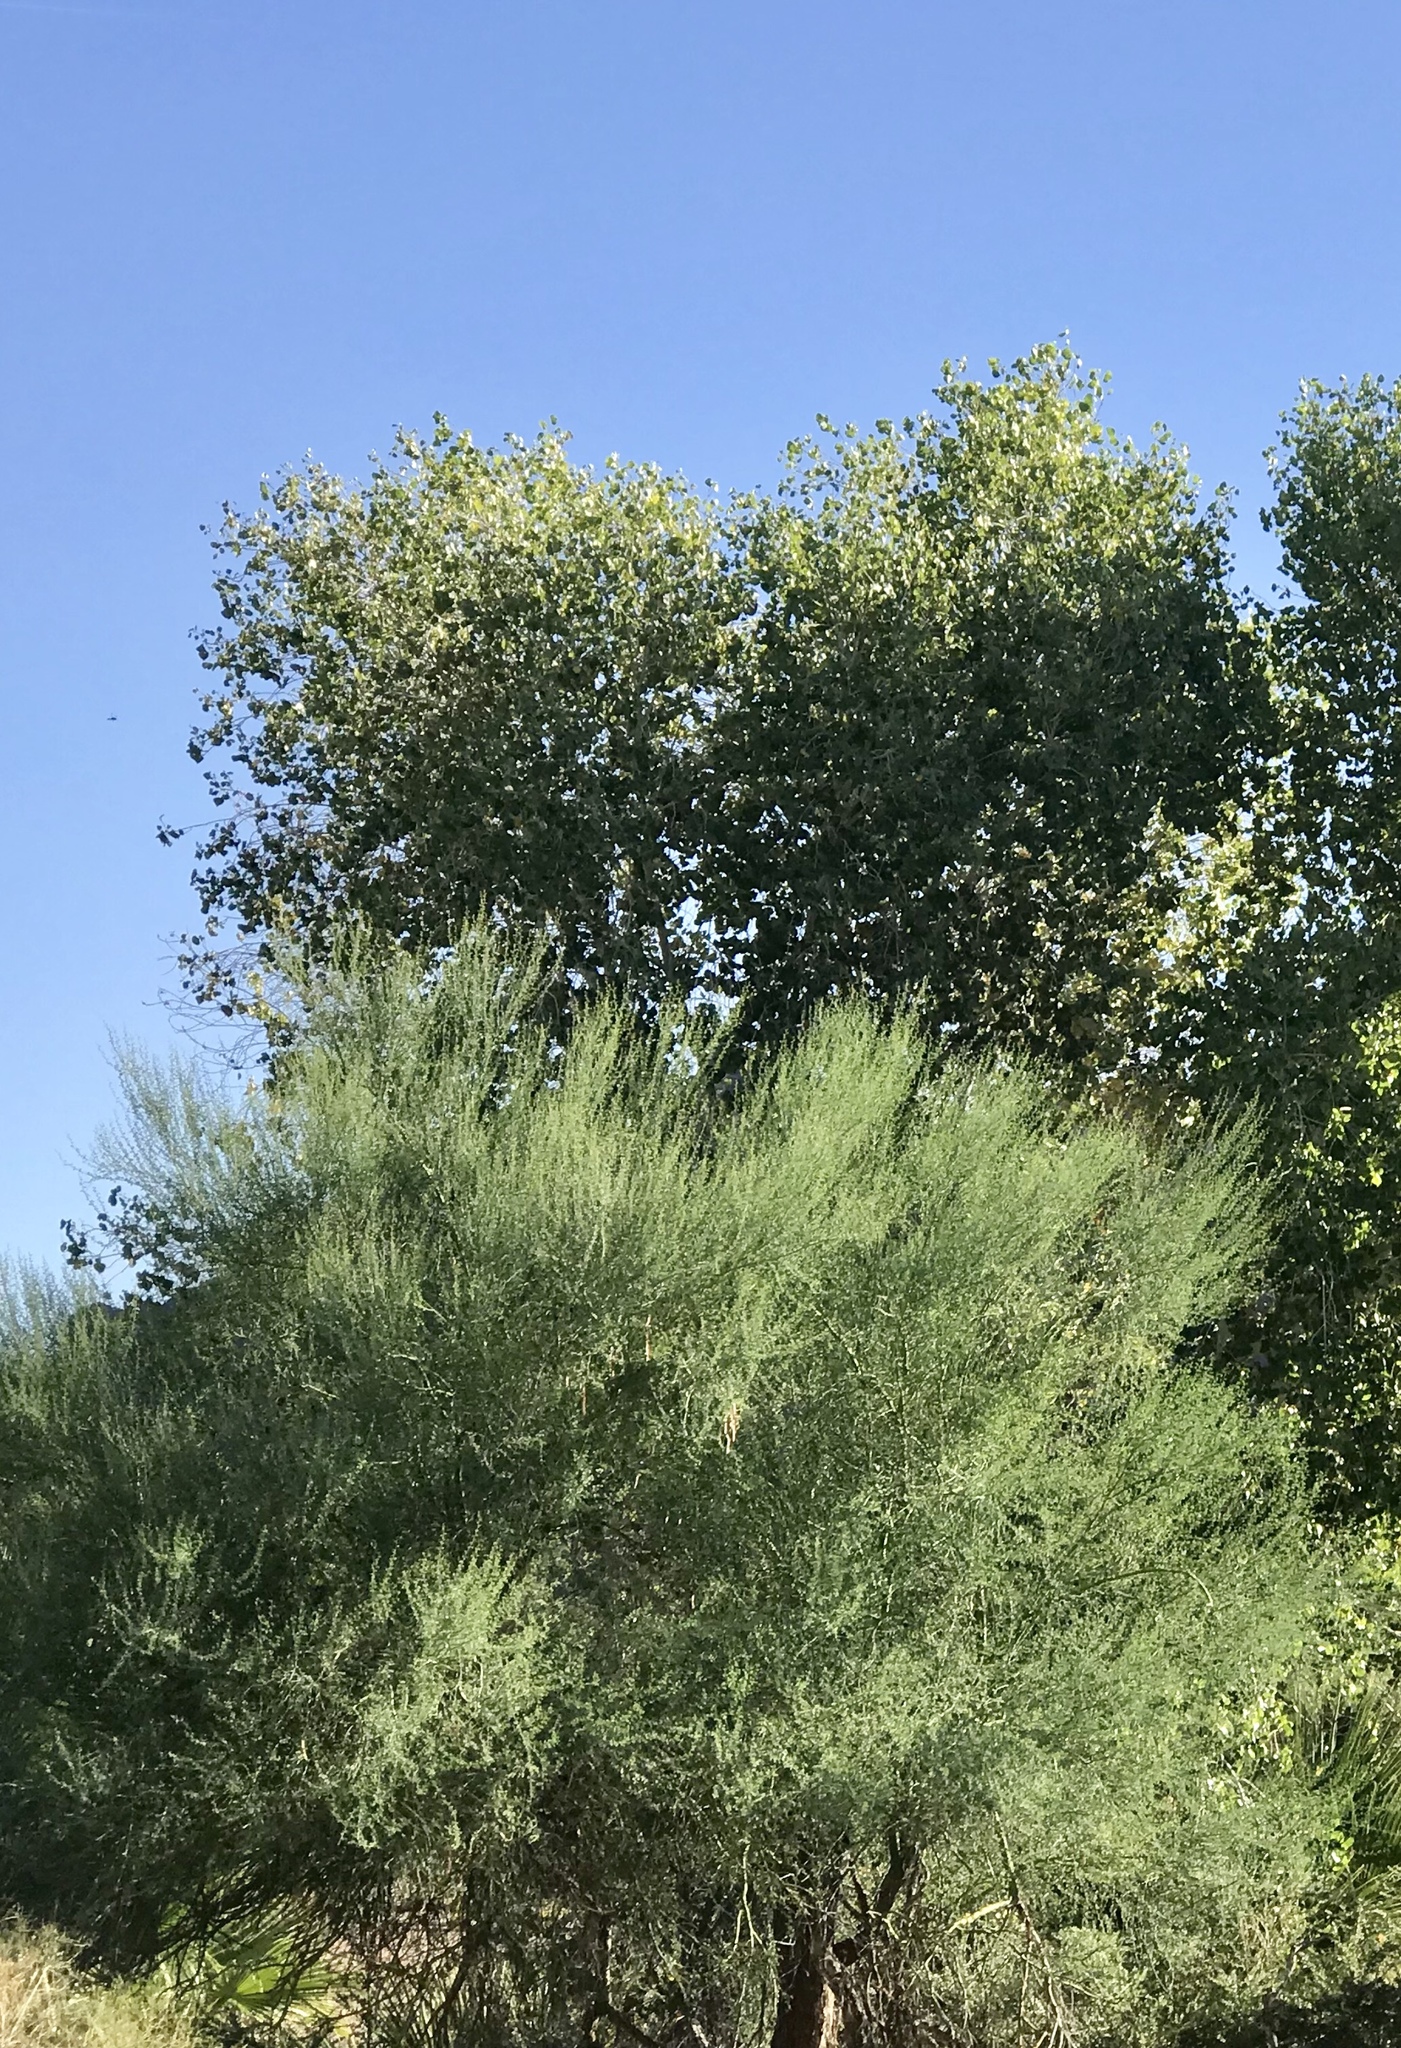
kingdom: Plantae
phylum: Tracheophyta
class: Magnoliopsida
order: Fabales
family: Fabaceae
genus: Parkinsonia
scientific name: Parkinsonia florida
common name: Blue paloverde
